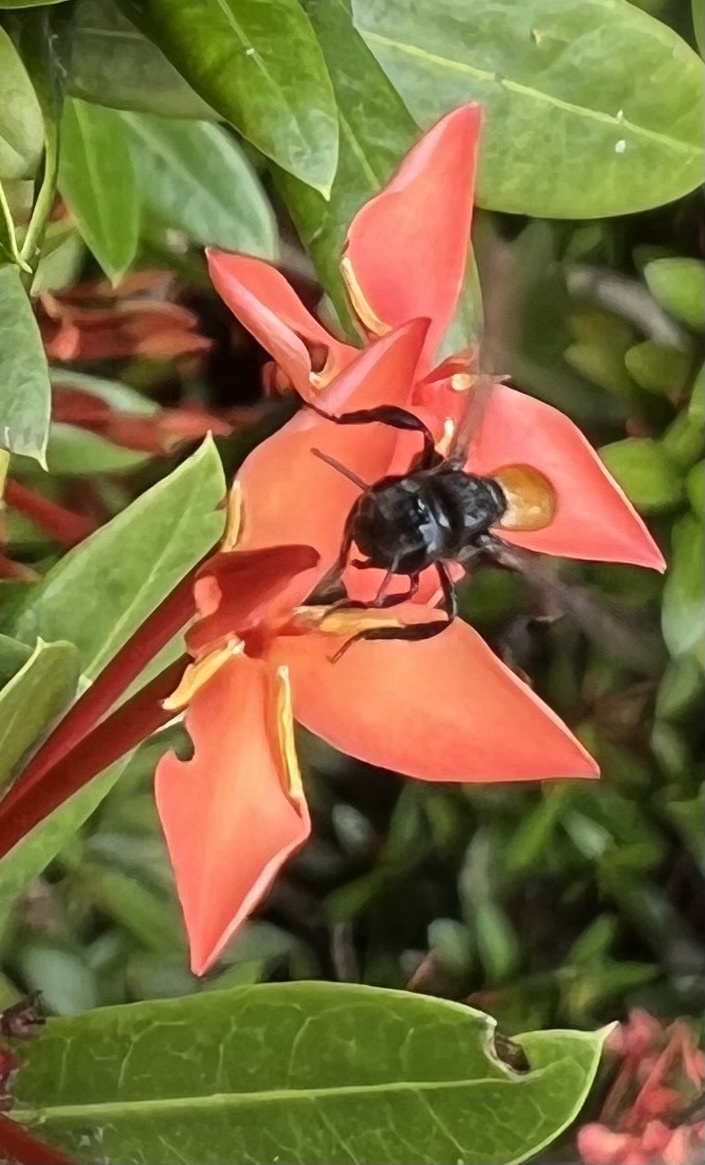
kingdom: Animalia
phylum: Arthropoda
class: Insecta
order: Hymenoptera
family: Apidae
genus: Trigona
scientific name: Trigona fulviventris
